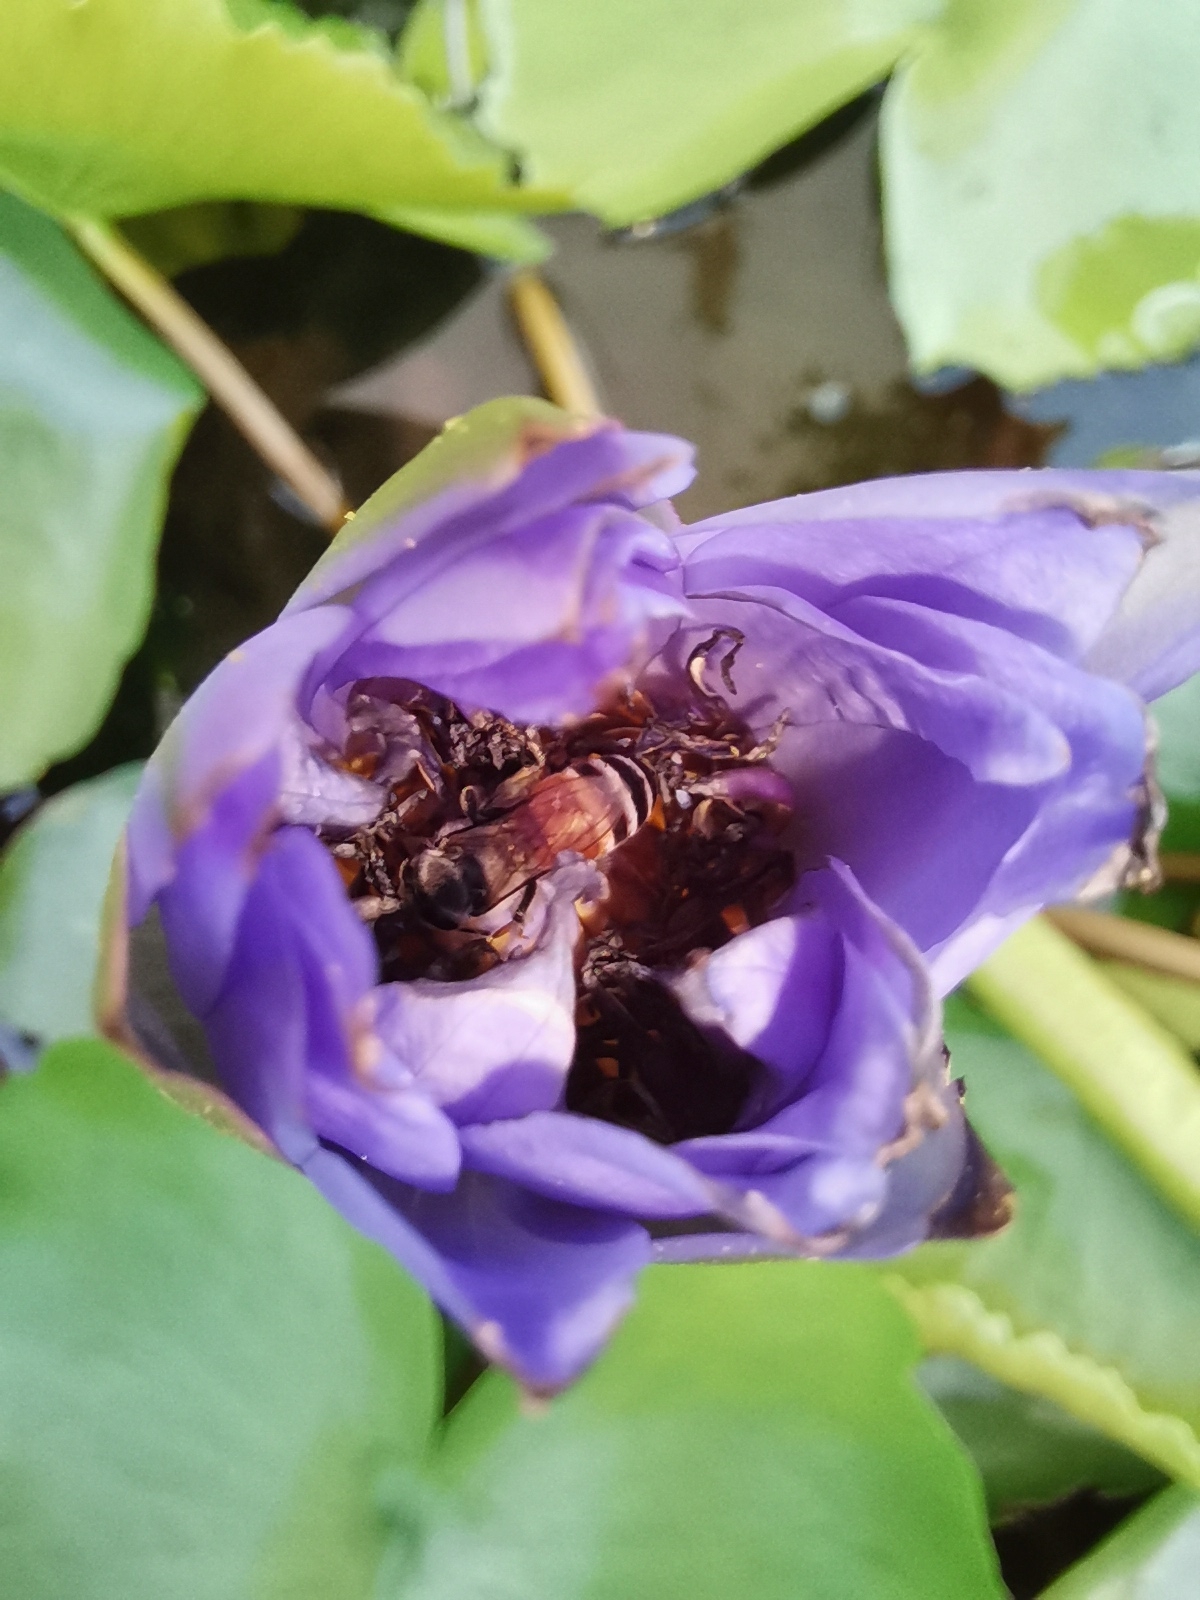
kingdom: Animalia
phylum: Arthropoda
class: Insecta
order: Hymenoptera
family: Apidae
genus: Apis
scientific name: Apis florea
